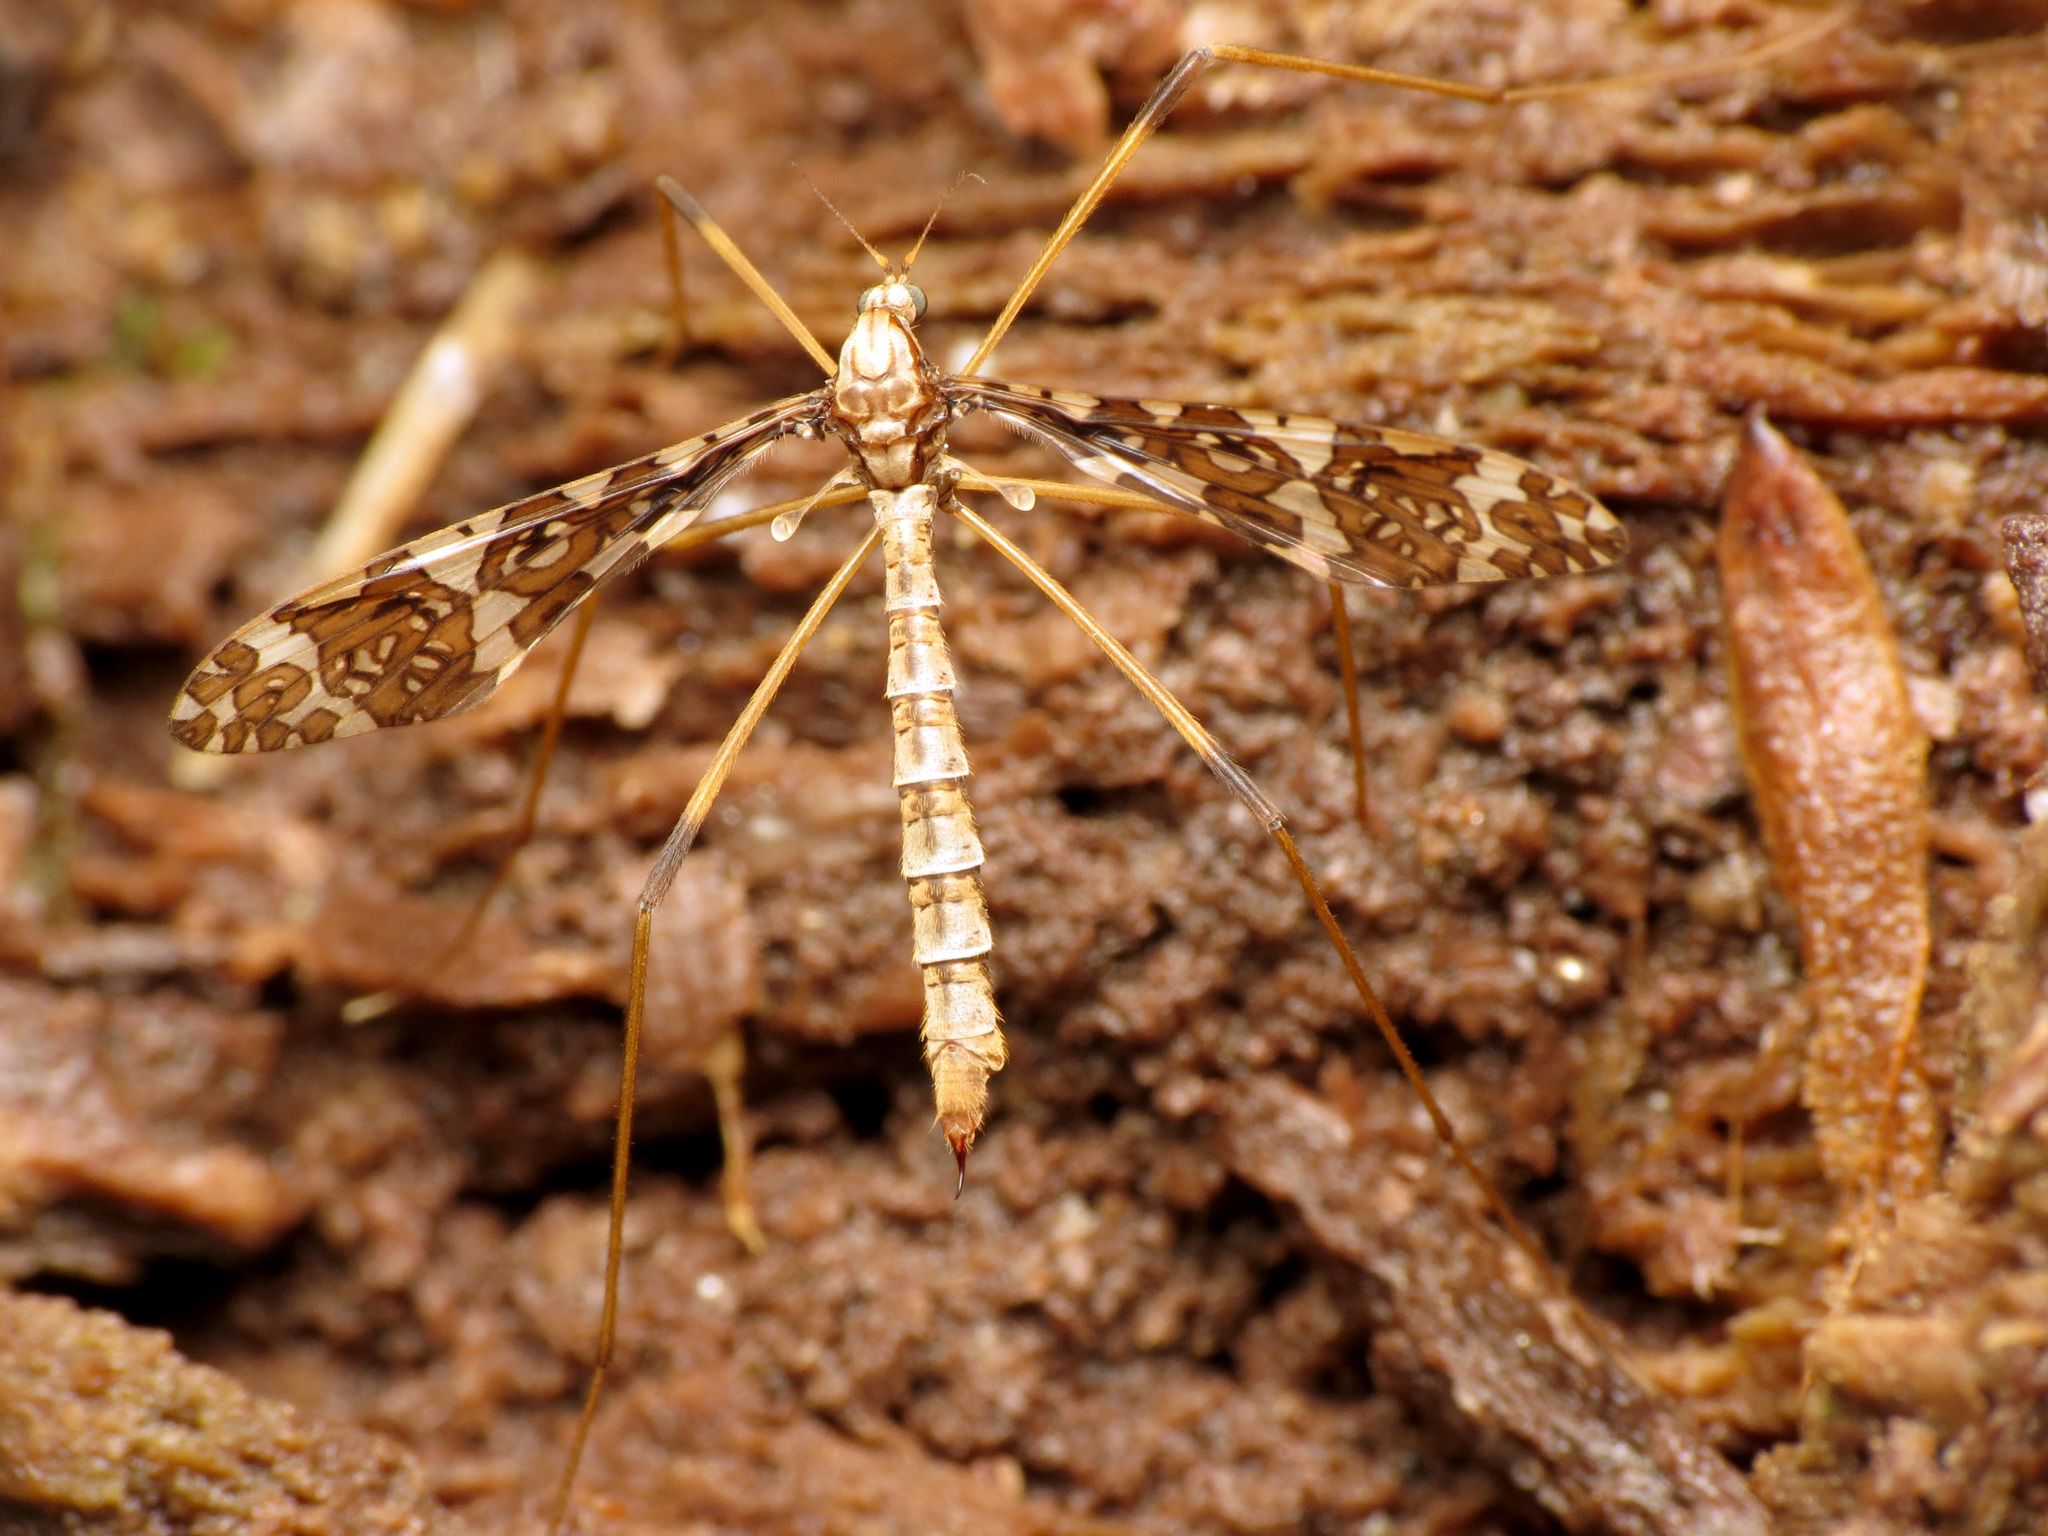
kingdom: Animalia
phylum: Arthropoda
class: Insecta
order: Diptera
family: Limoniidae
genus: Epiphragma
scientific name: Epiphragma fasciapenne
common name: Band-winged crane fly
